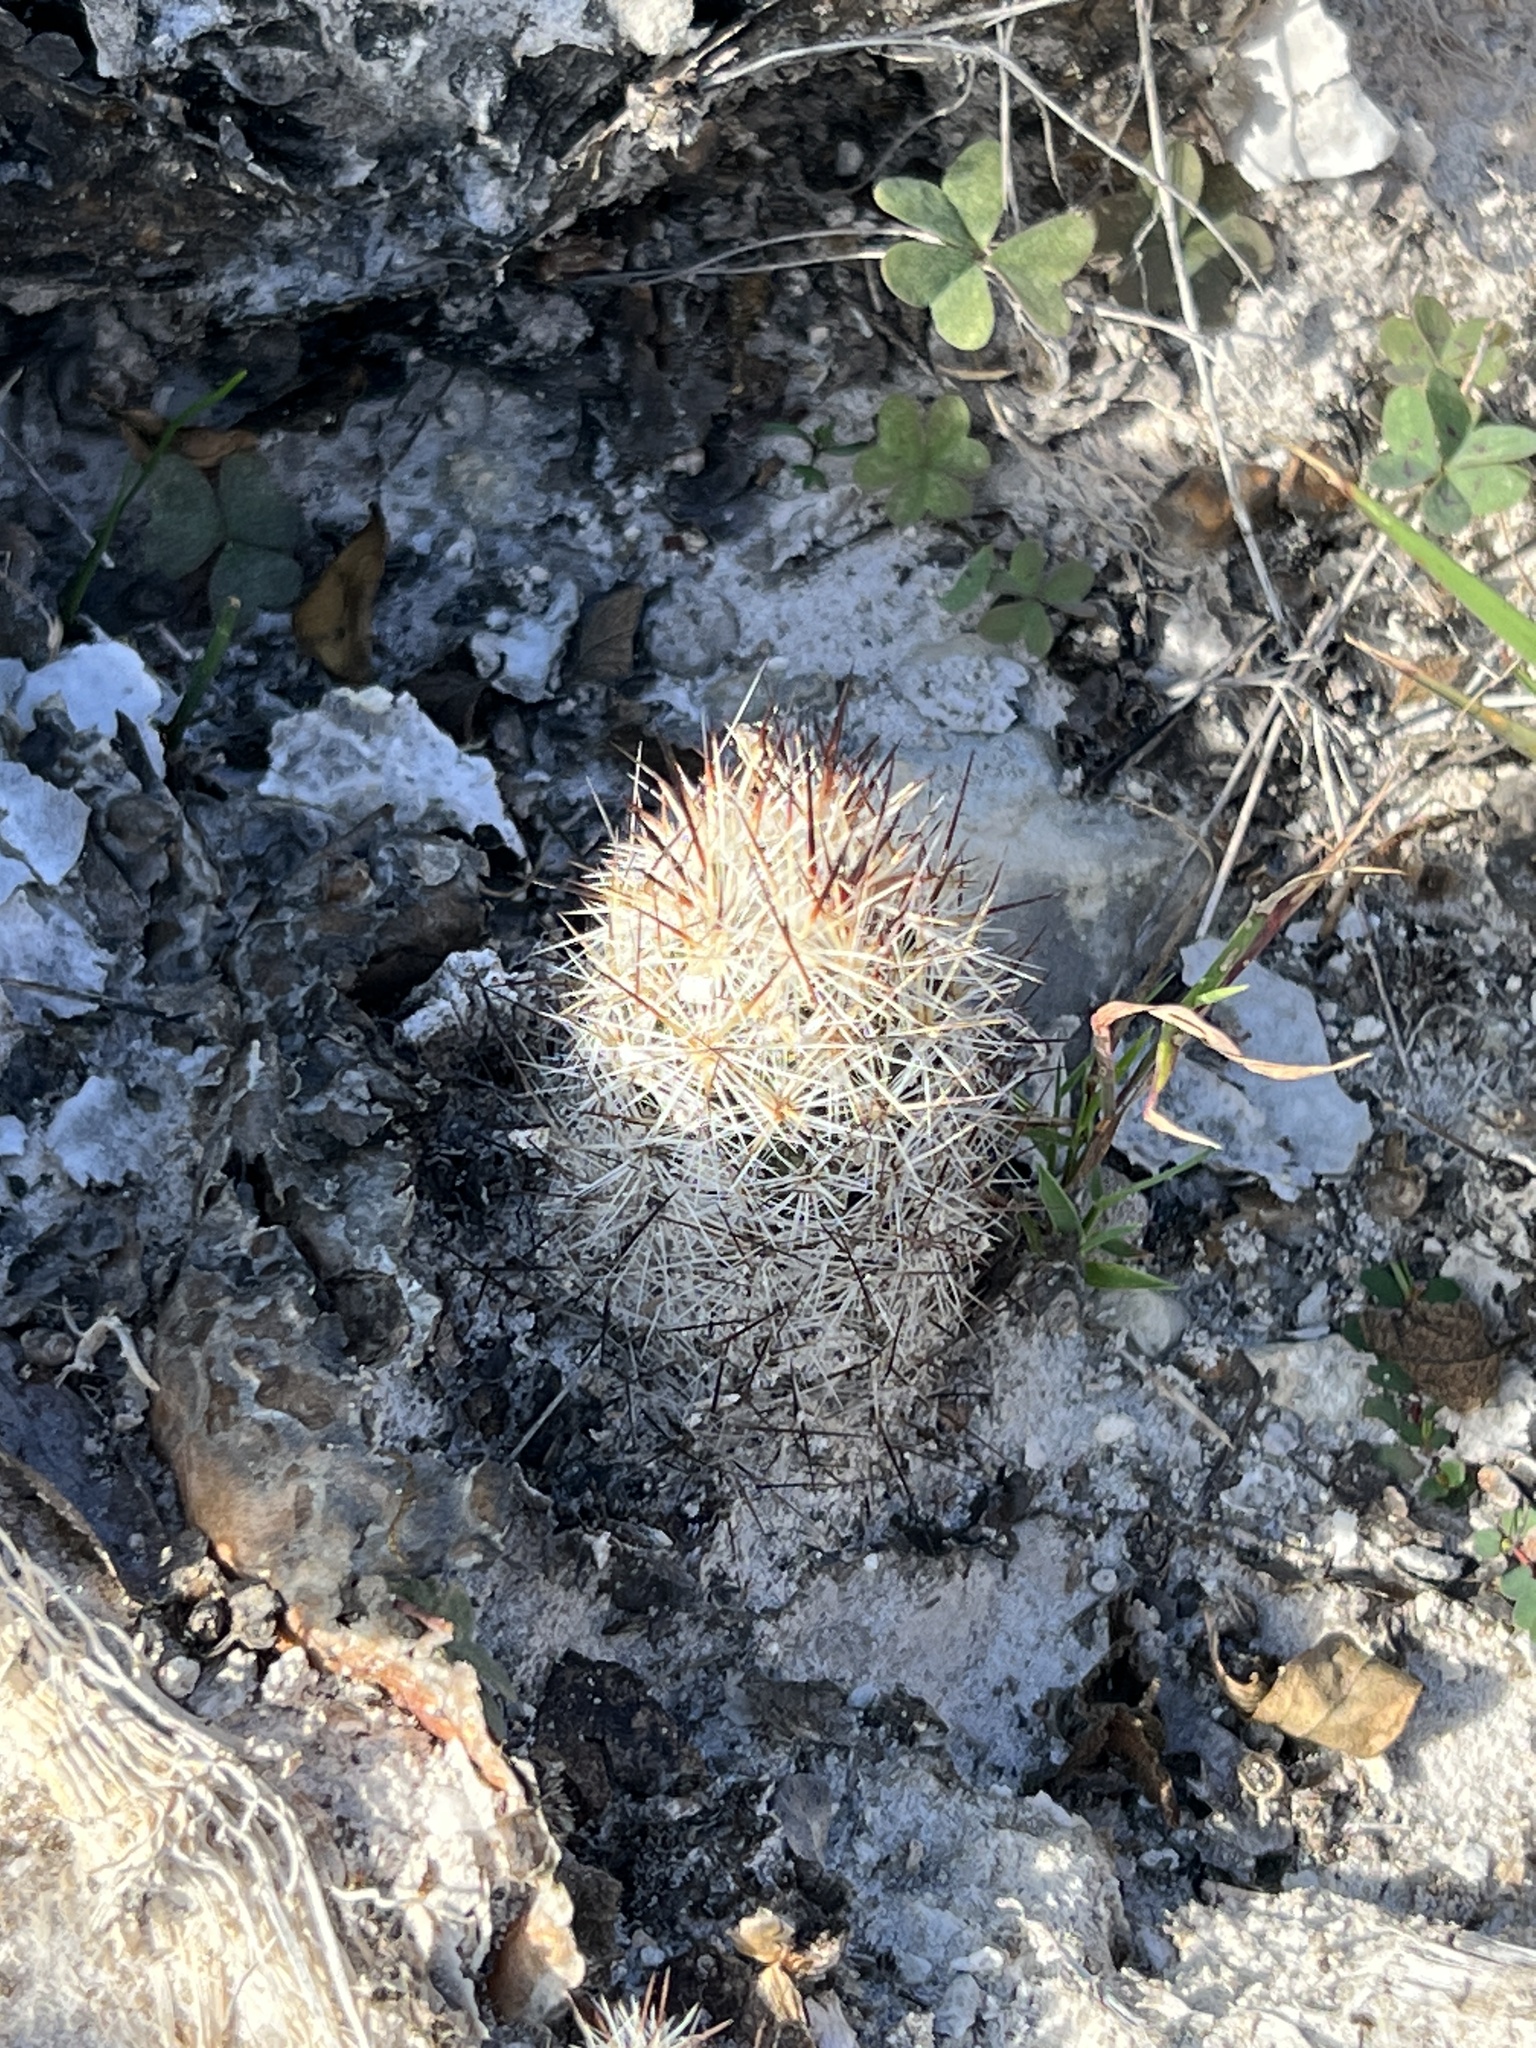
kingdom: Plantae
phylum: Tracheophyta
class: Magnoliopsida
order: Caryophyllales
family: Cactaceae
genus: Pelecyphora
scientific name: Pelecyphora emskoetteriana
